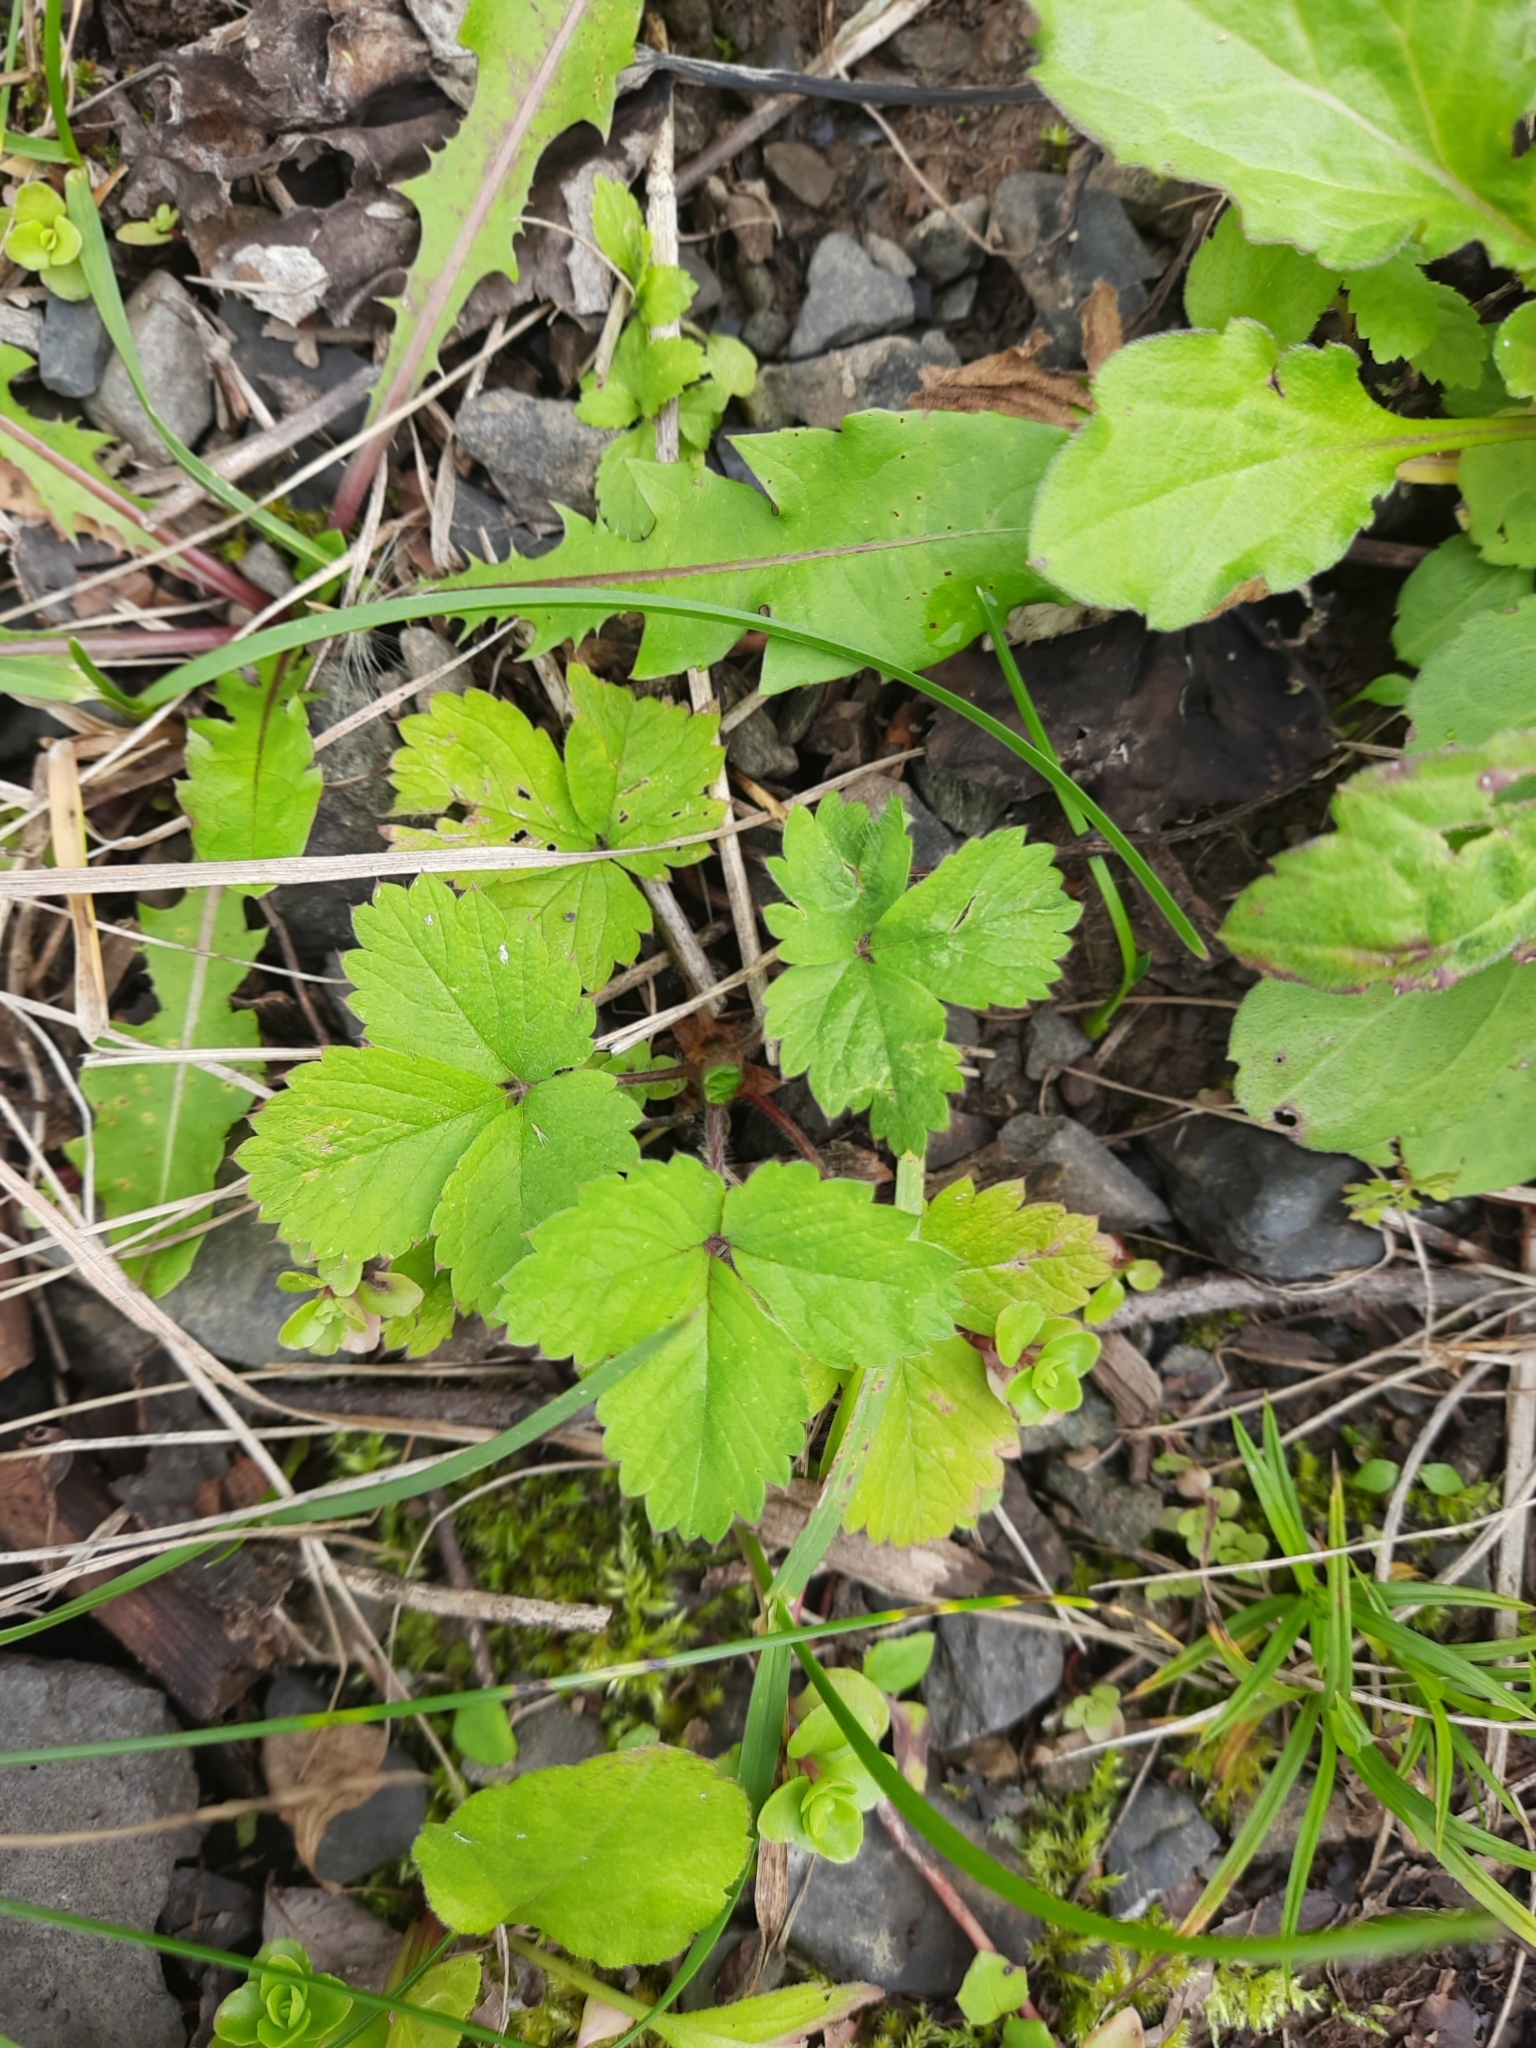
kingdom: Plantae
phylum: Tracheophyta
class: Magnoliopsida
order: Rosales
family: Rosaceae
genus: Potentilla
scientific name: Potentilla micrantha
